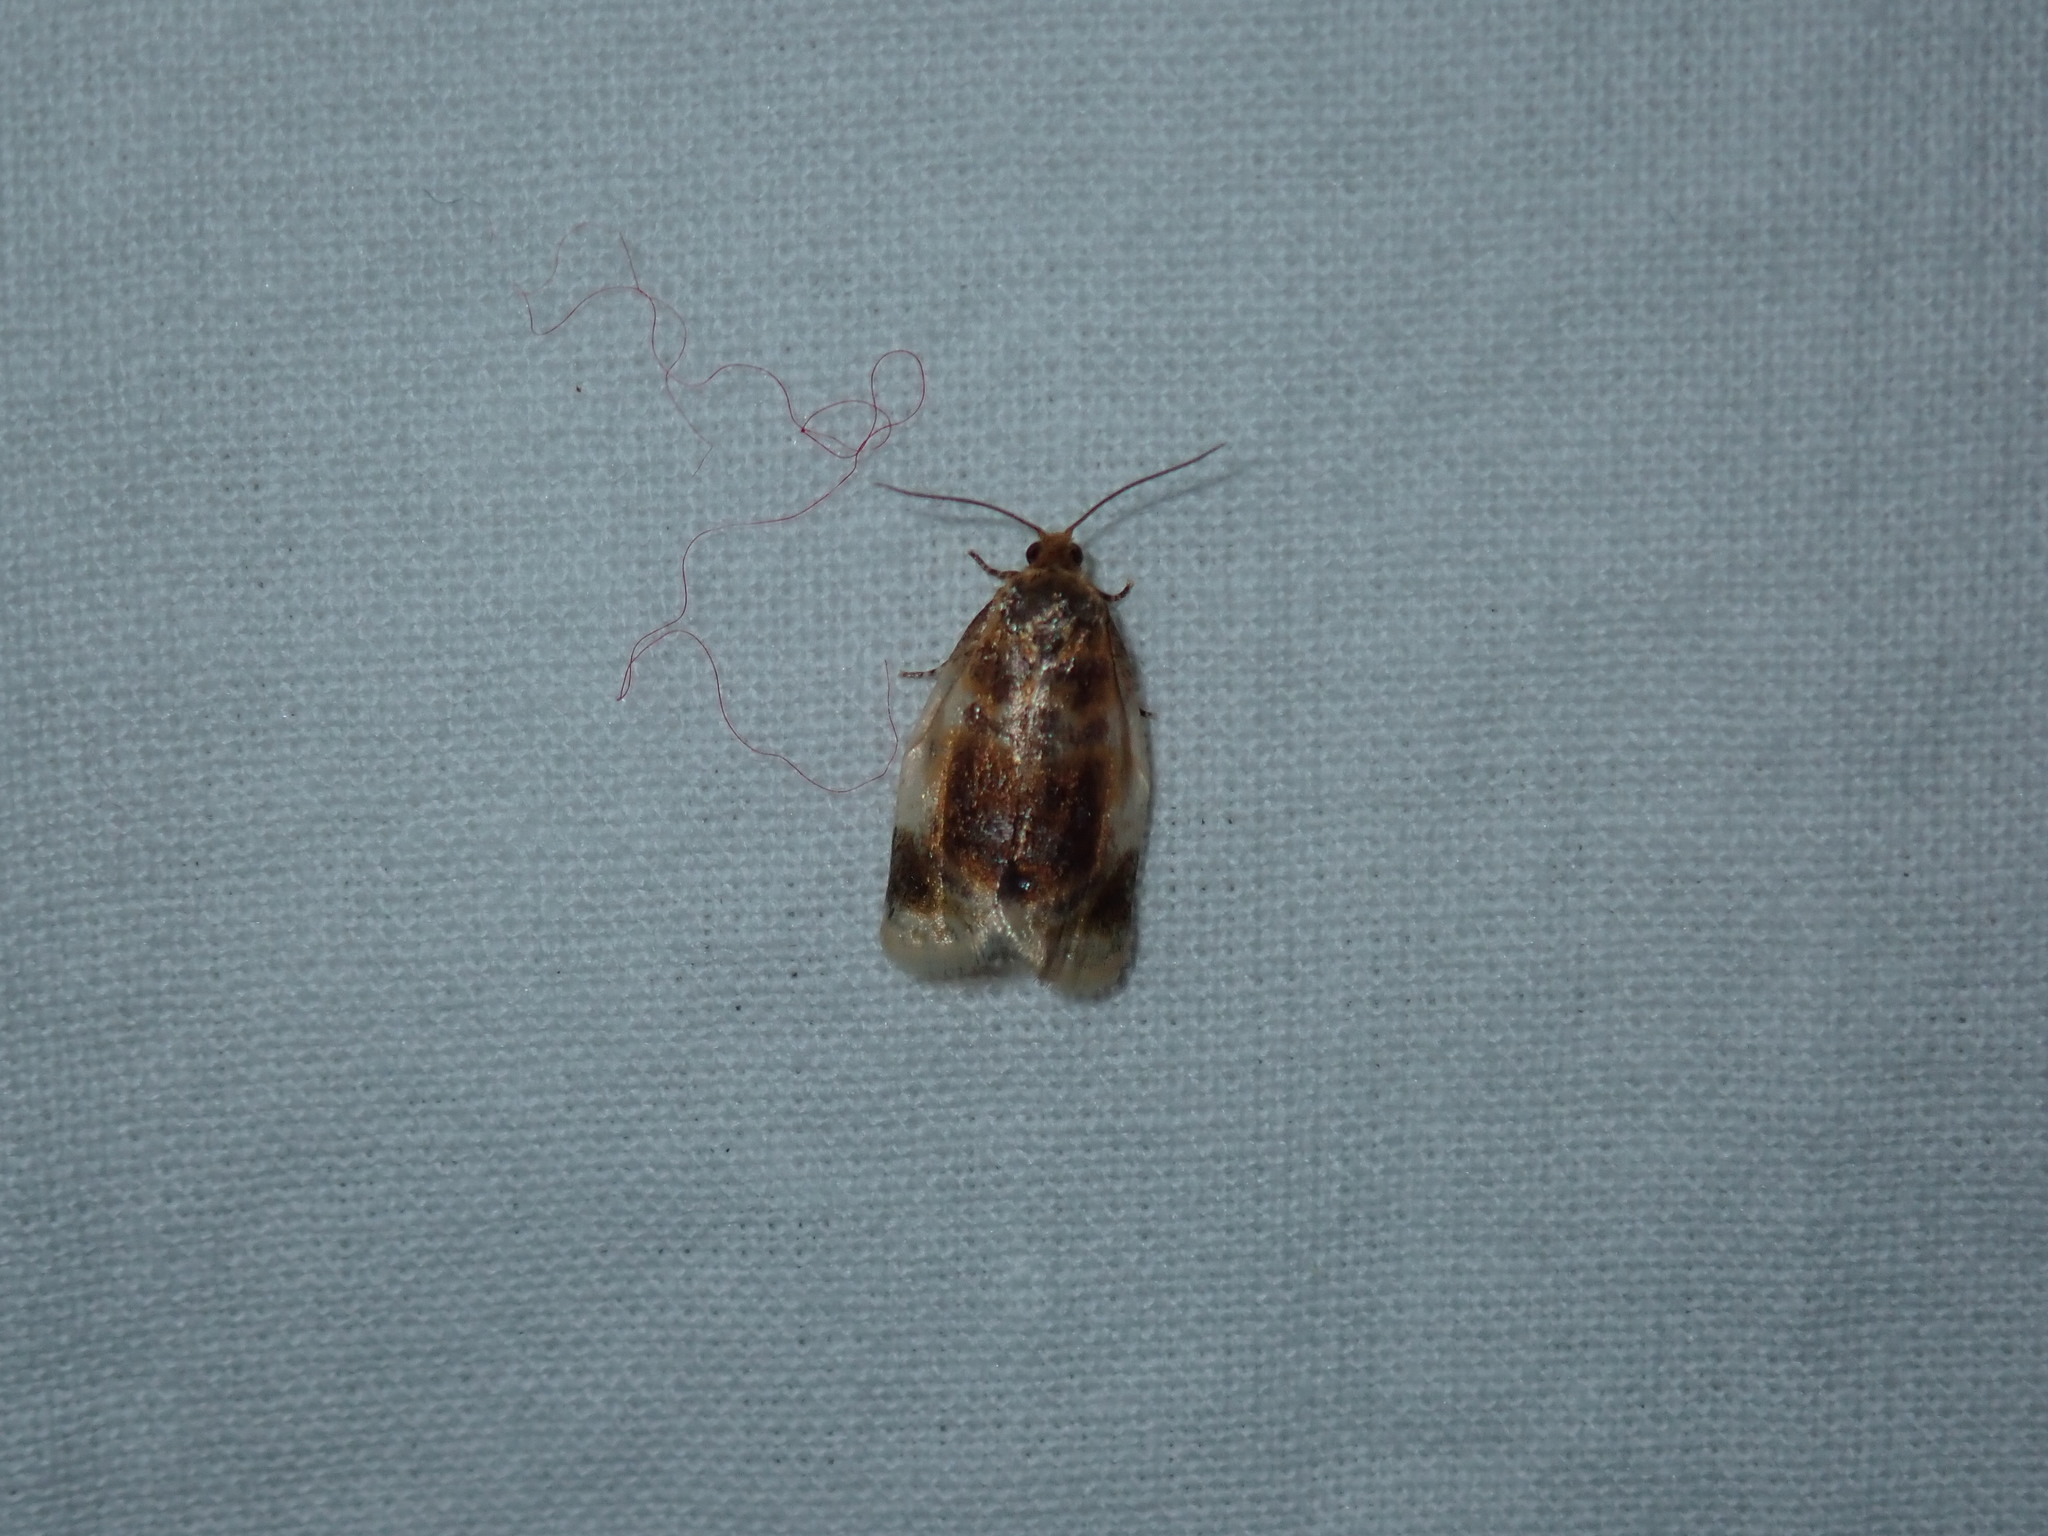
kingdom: Animalia
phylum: Arthropoda
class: Insecta
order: Lepidoptera
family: Tortricidae
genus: Clepsis
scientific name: Clepsis melaleucanus
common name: American apple tortrix
